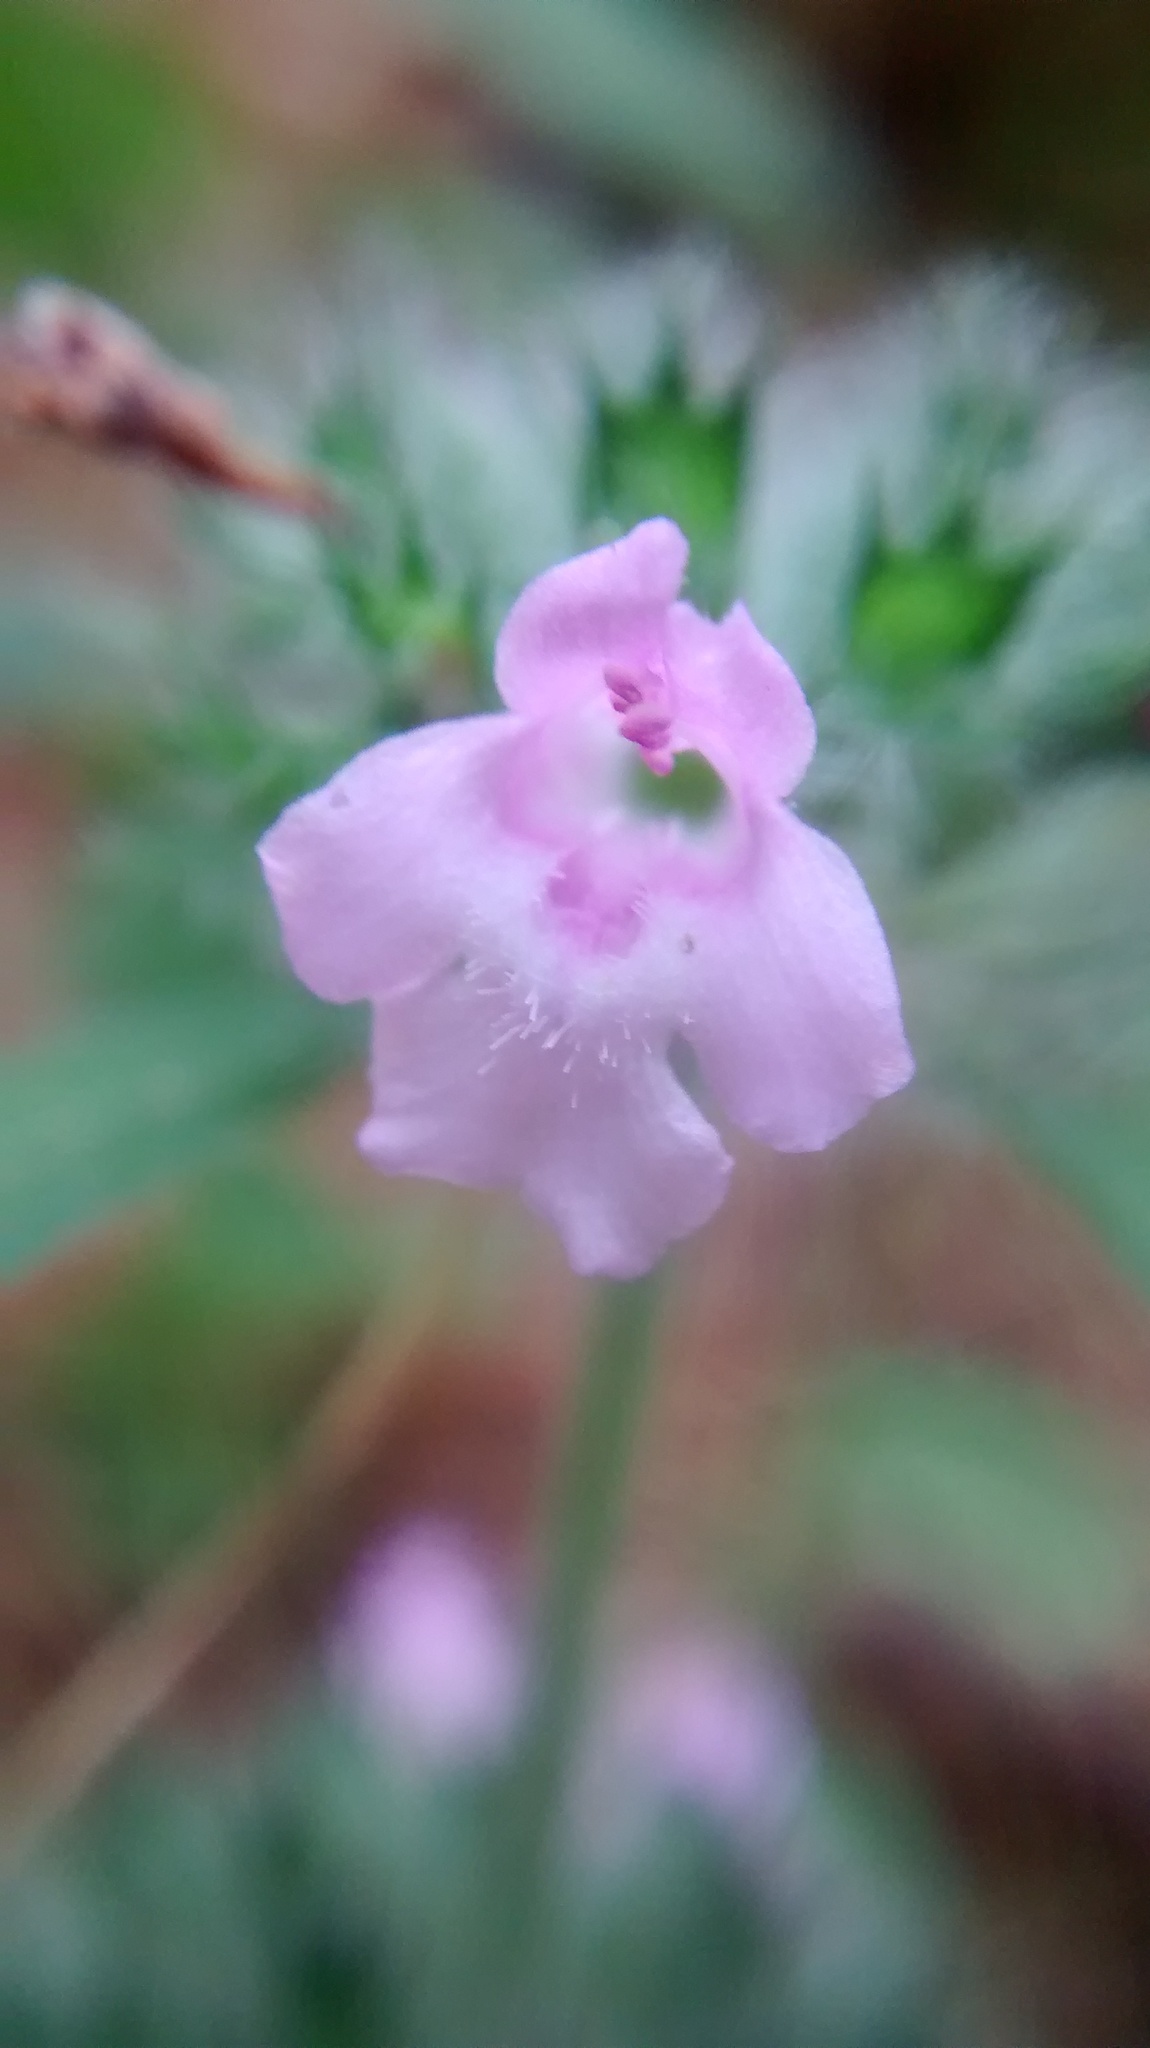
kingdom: Plantae
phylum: Tracheophyta
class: Magnoliopsida
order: Lamiales
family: Lamiaceae
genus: Clinopodium
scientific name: Clinopodium vulgare
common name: Wild basil
